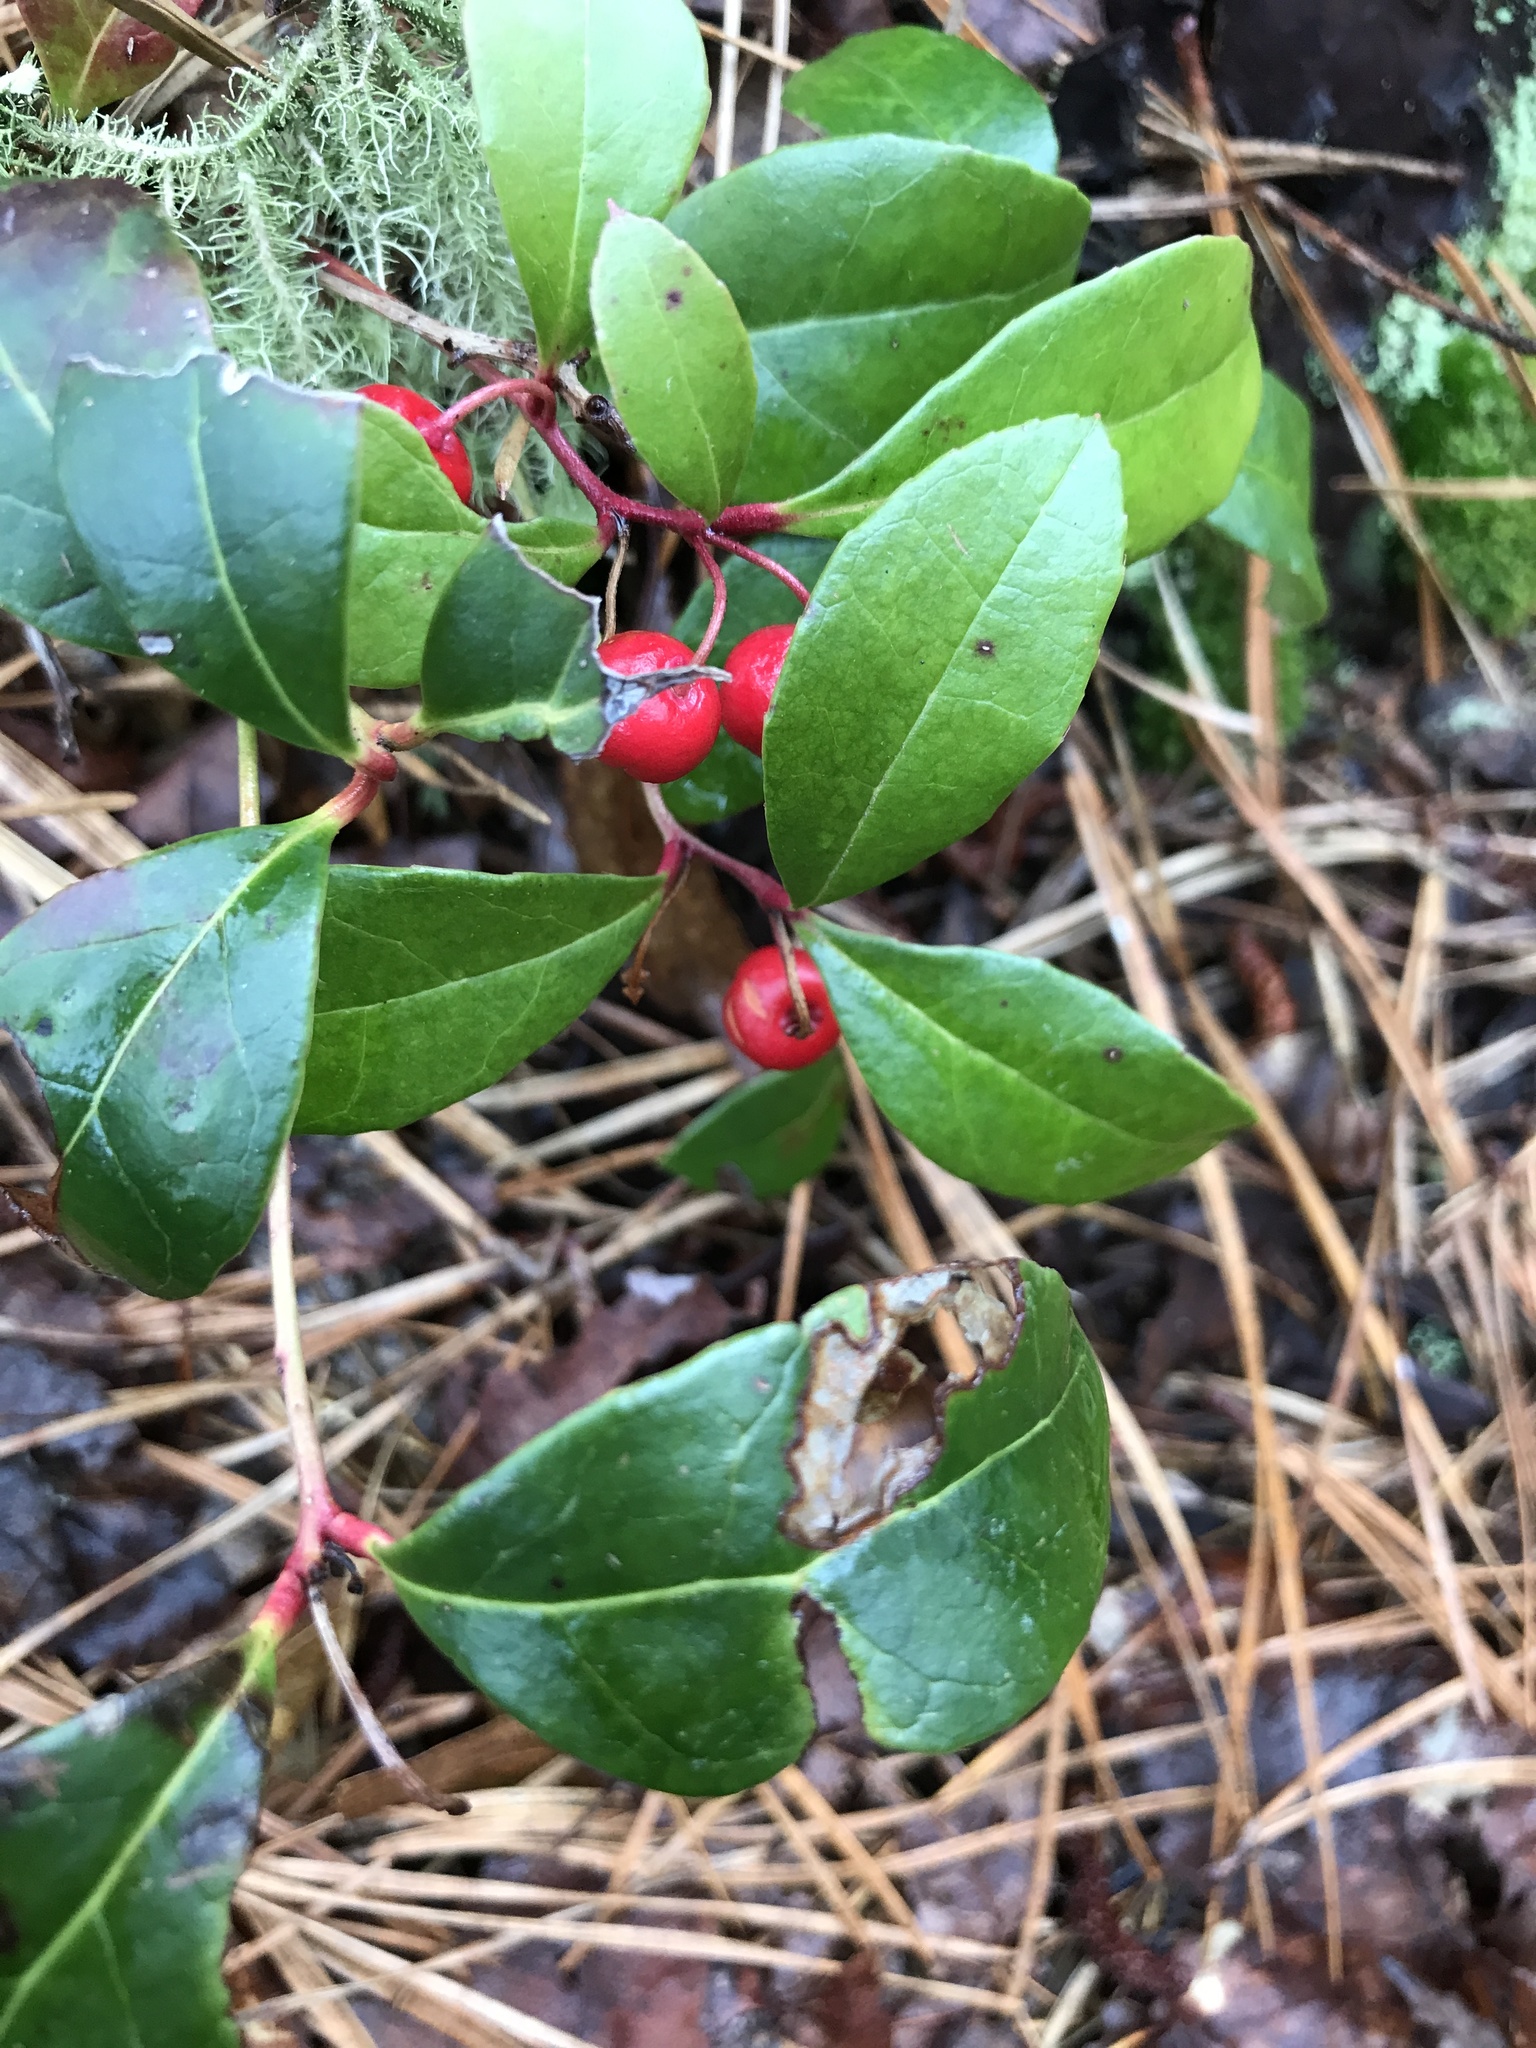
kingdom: Plantae
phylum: Tracheophyta
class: Magnoliopsida
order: Ericales
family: Ericaceae
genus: Gaultheria
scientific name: Gaultheria procumbens
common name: Checkerberry
